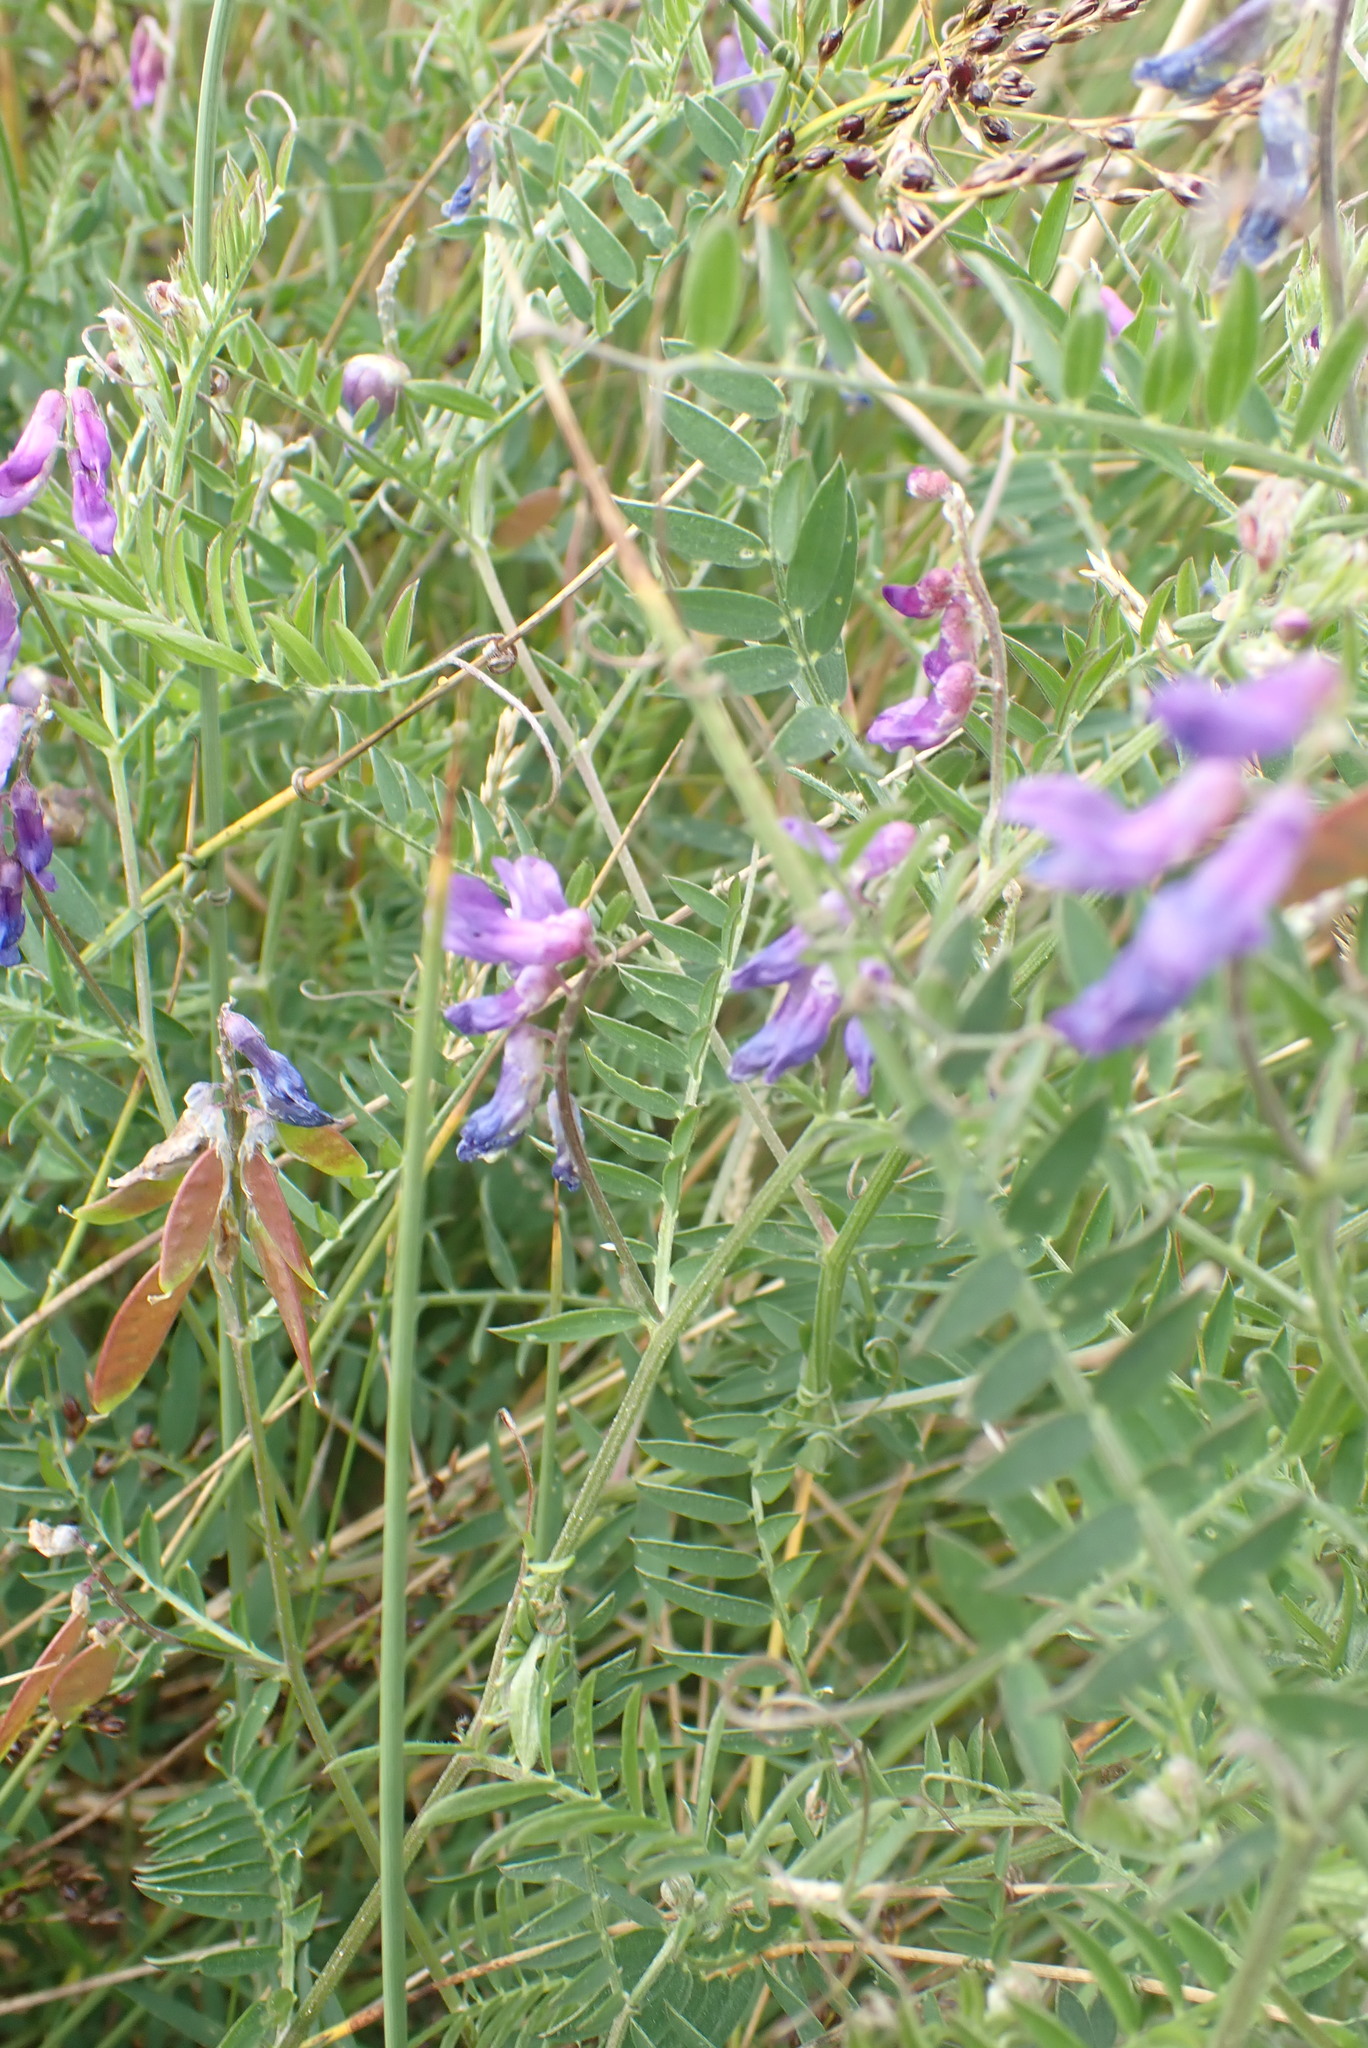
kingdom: Plantae
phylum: Tracheophyta
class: Magnoliopsida
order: Fabales
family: Fabaceae
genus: Vicia
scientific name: Vicia cracca
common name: Bird vetch
